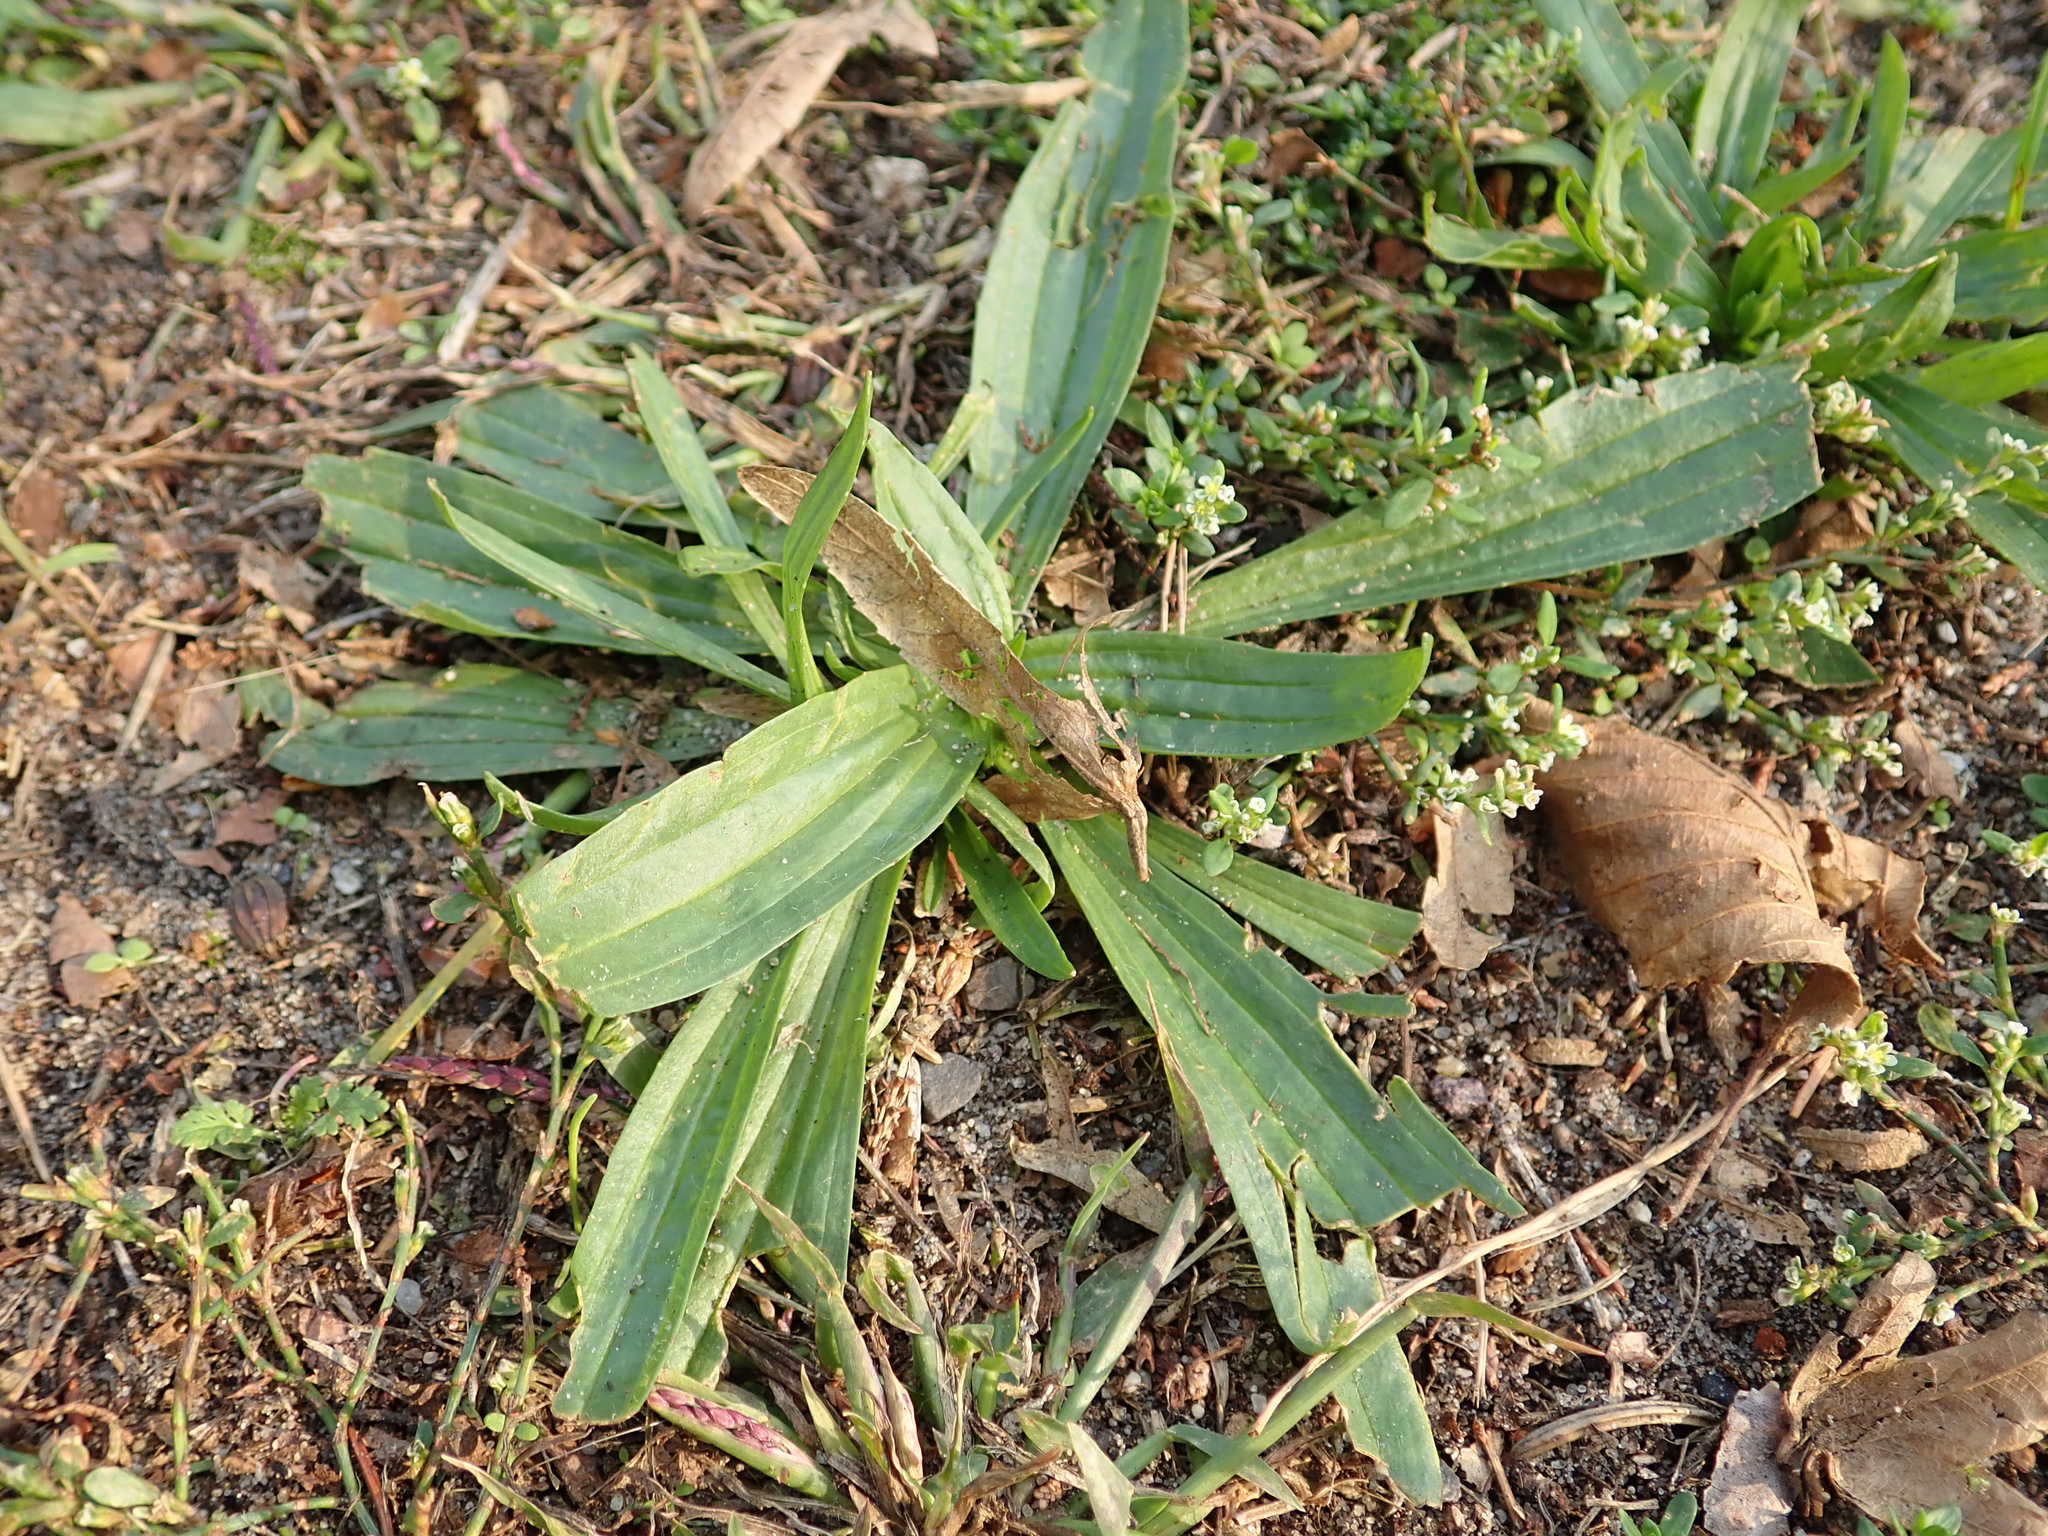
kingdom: Plantae
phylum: Tracheophyta
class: Magnoliopsida
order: Lamiales
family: Plantaginaceae
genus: Plantago
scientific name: Plantago lanceolata
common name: Ribwort plantain
